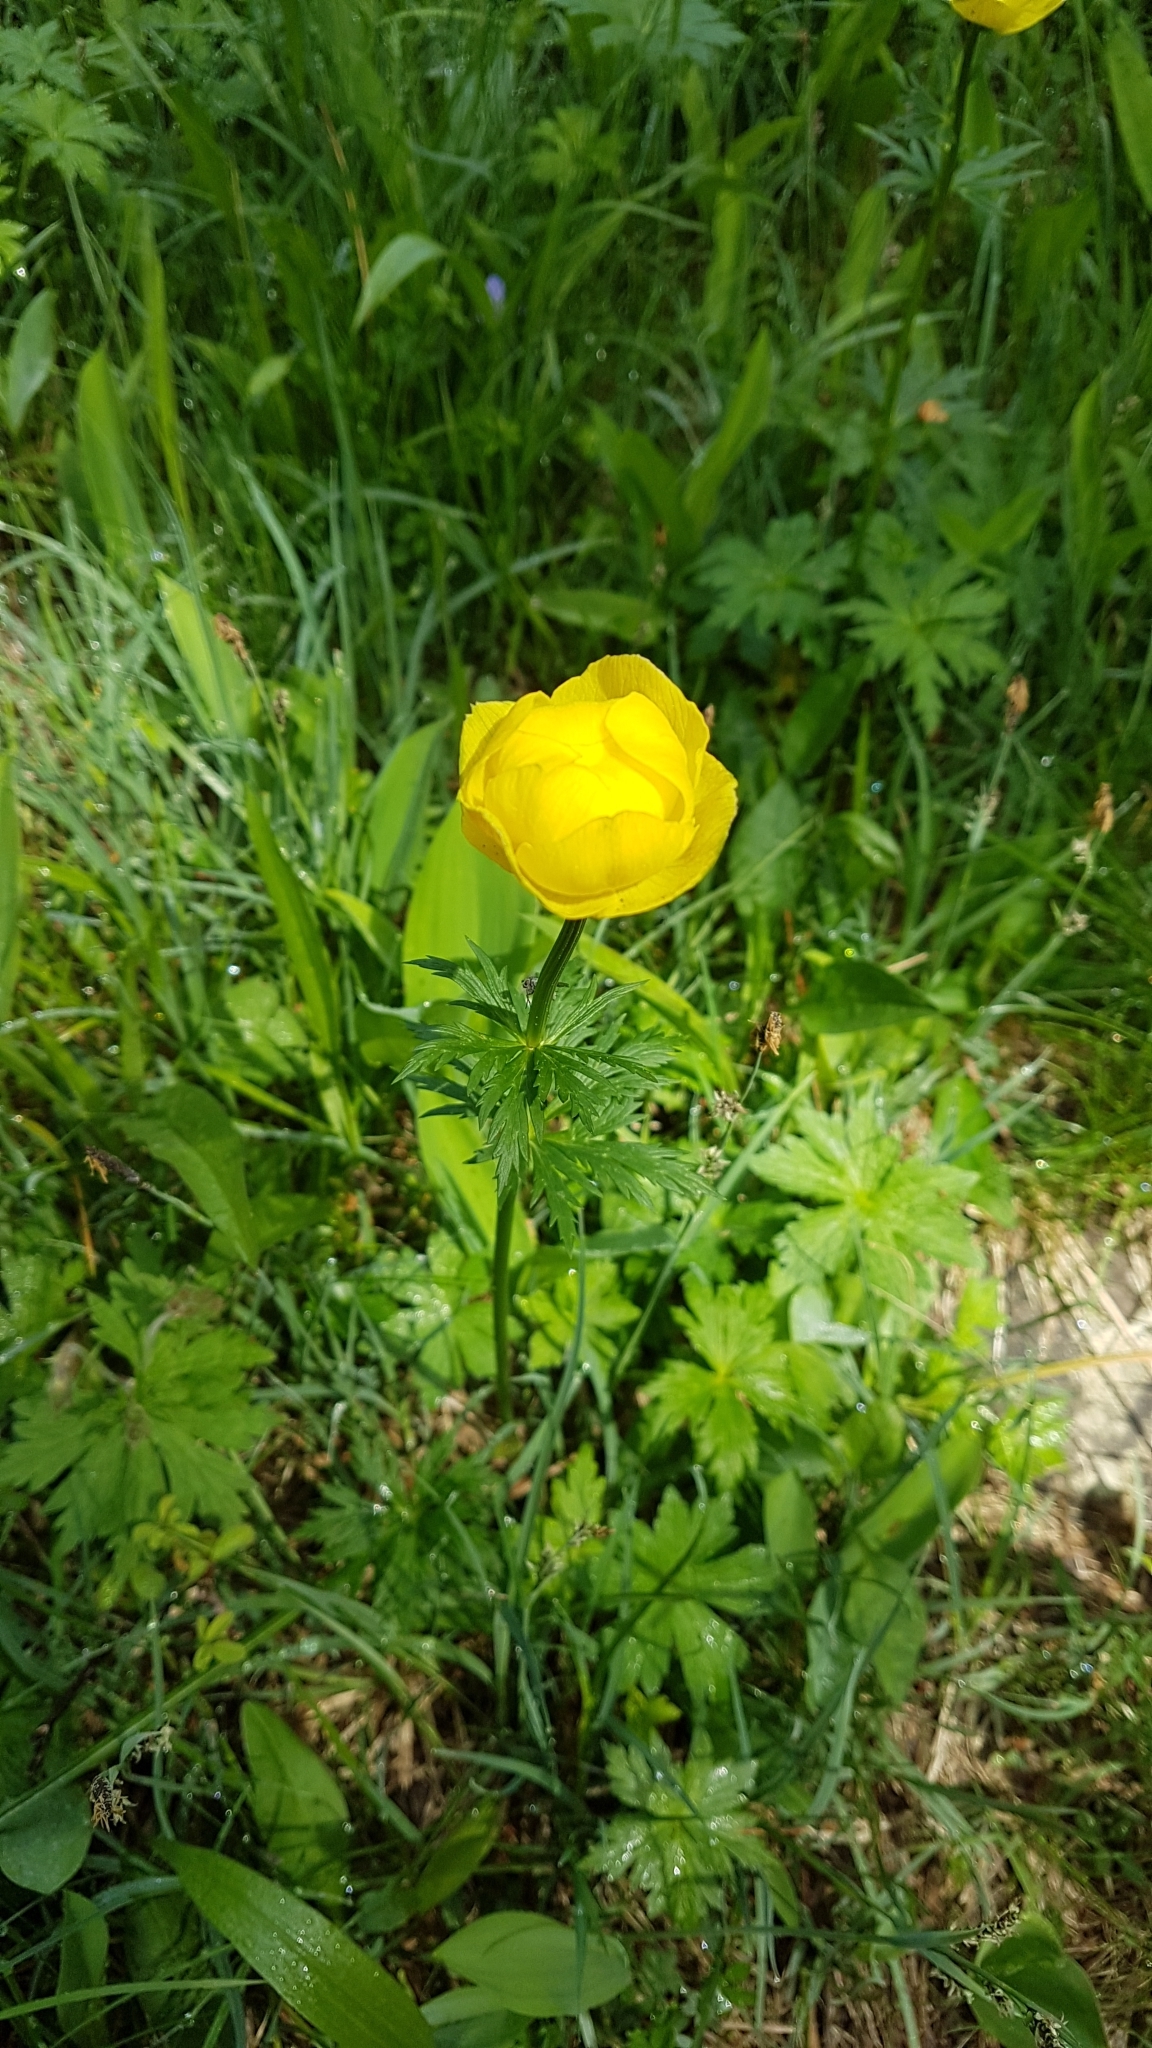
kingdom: Plantae
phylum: Tracheophyta
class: Magnoliopsida
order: Ranunculales
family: Ranunculaceae
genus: Trollius
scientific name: Trollius europaeus
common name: European globeflower
